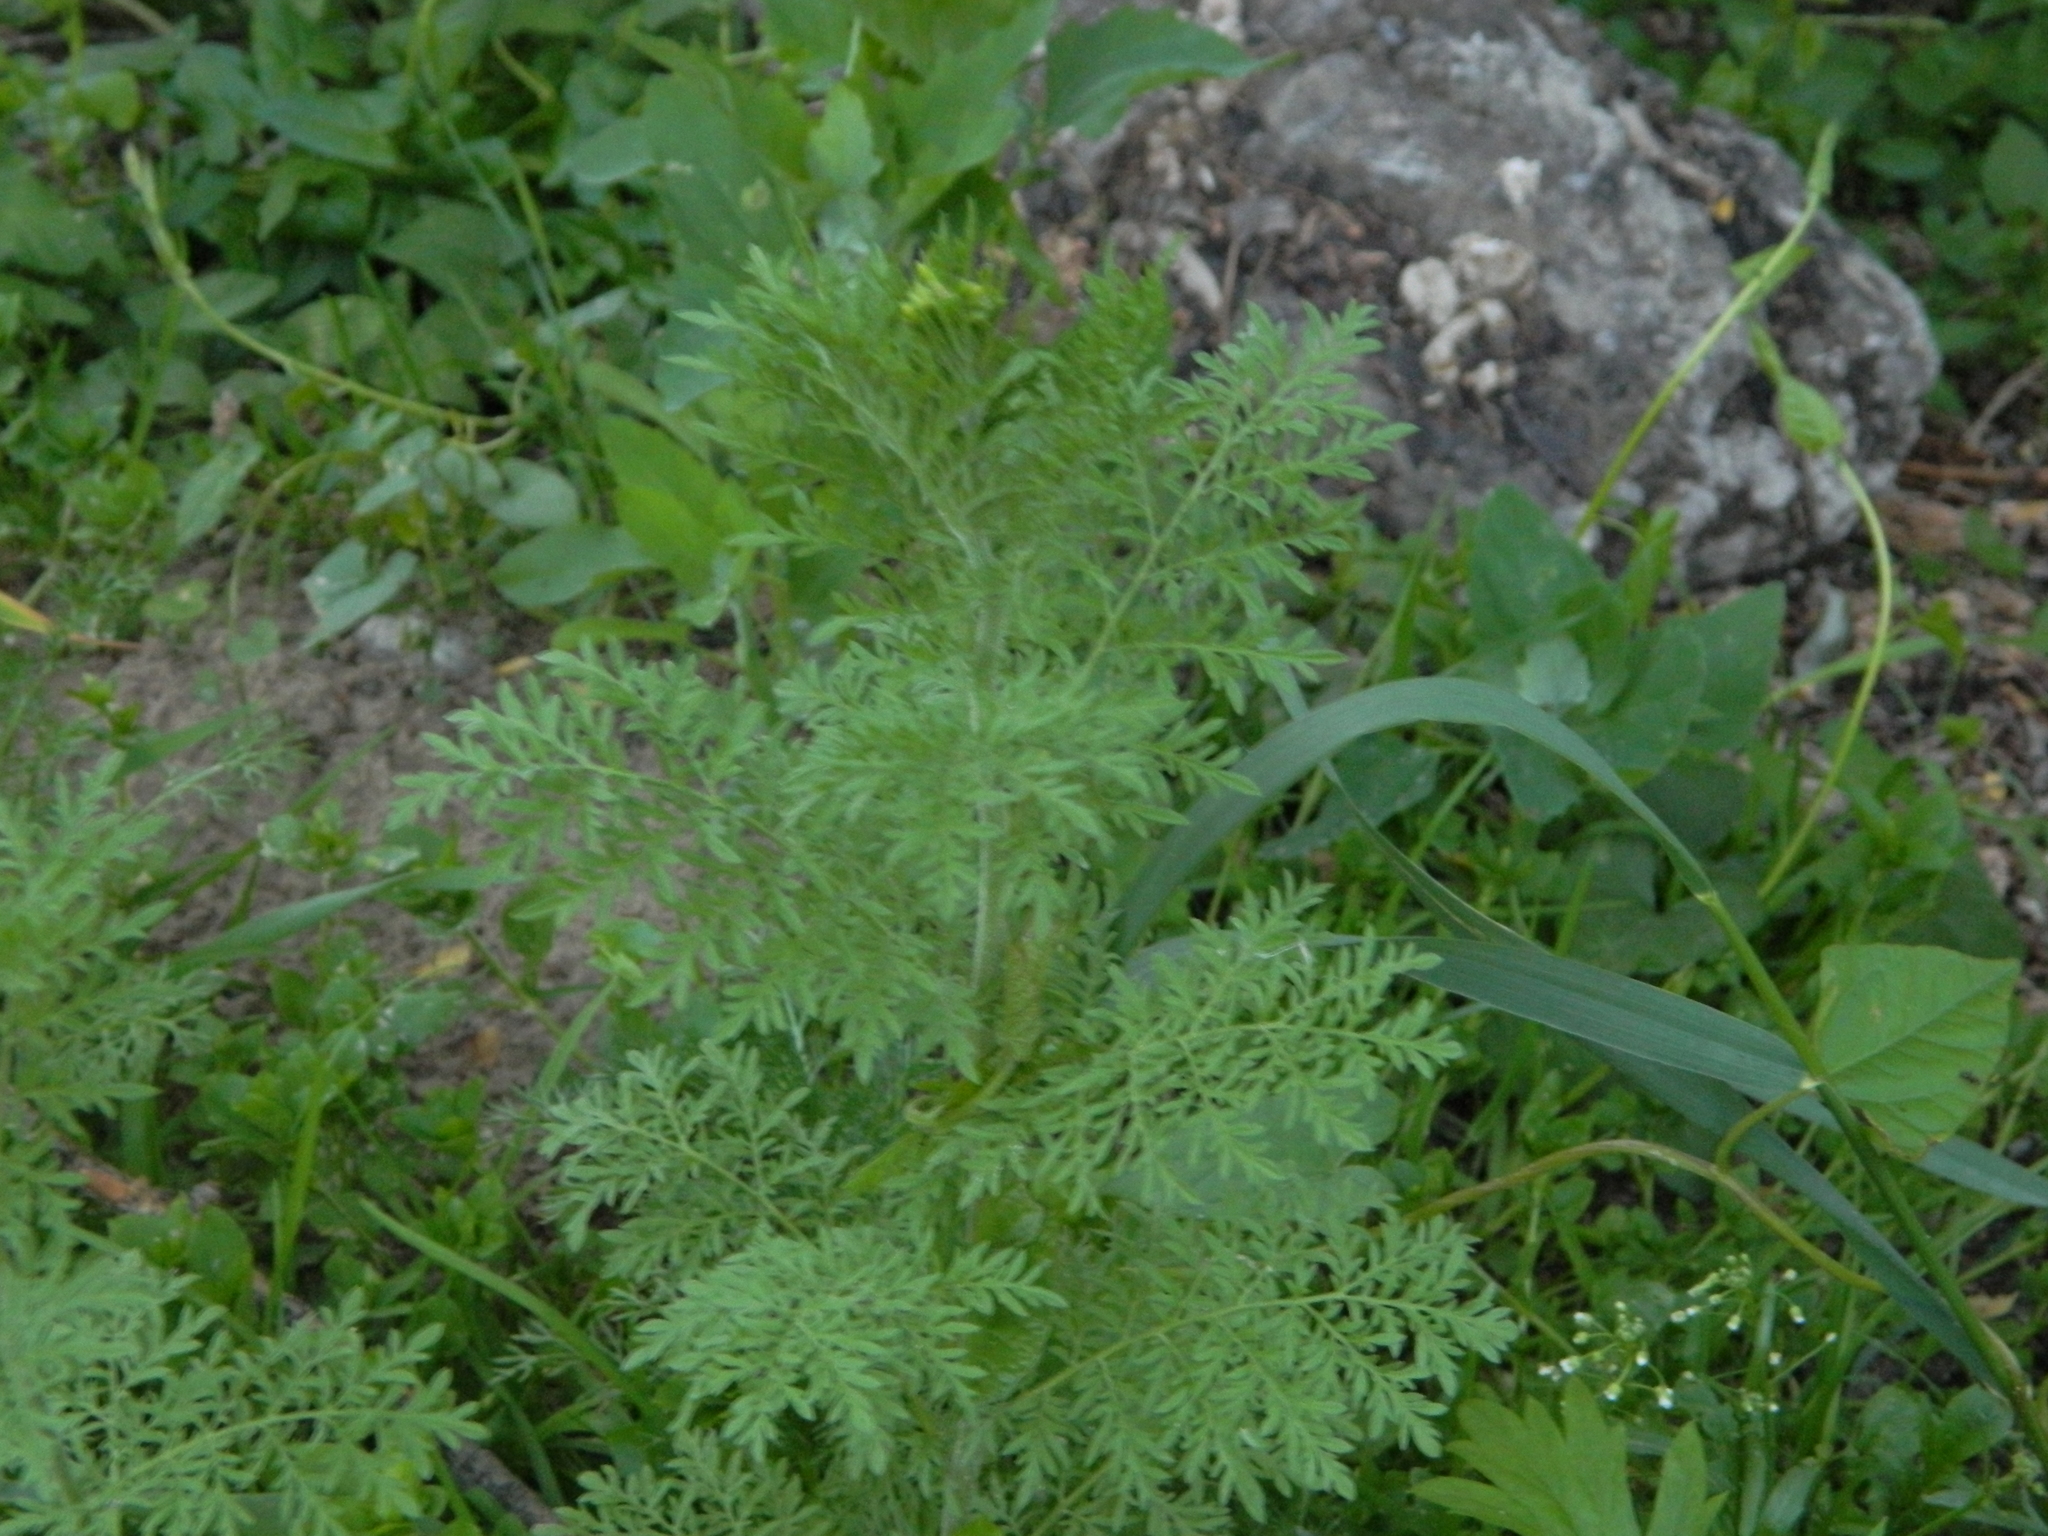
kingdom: Plantae
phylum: Tracheophyta
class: Magnoliopsida
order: Brassicales
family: Brassicaceae
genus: Descurainia
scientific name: Descurainia sophia
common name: Flixweed
